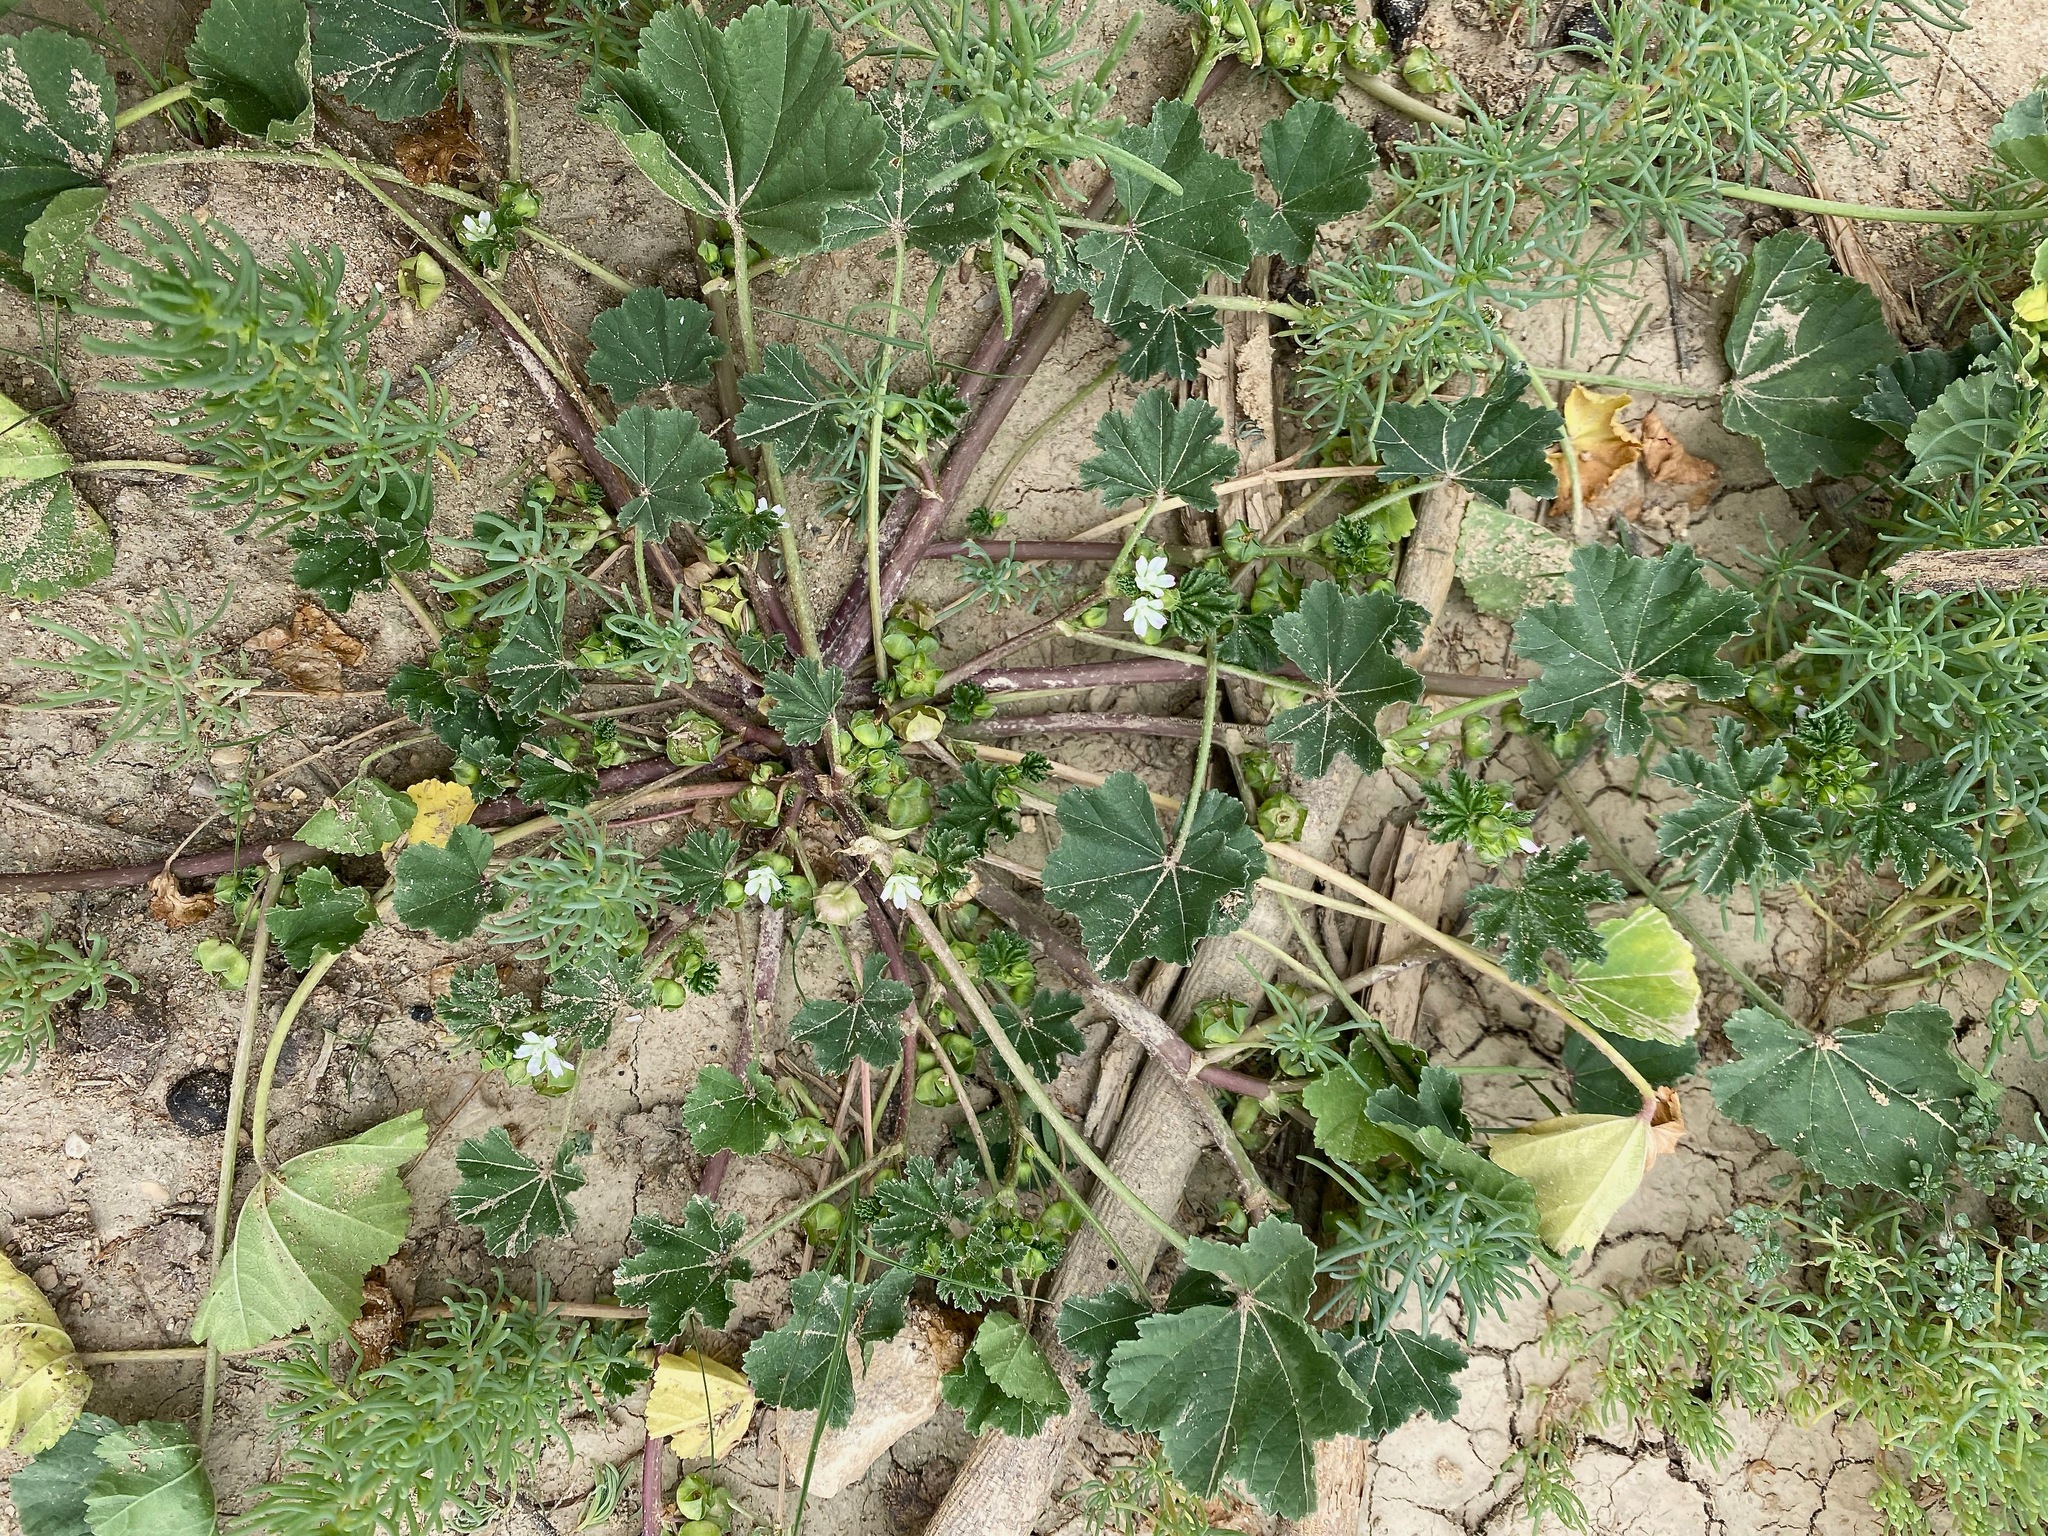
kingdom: Plantae
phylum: Tracheophyta
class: Magnoliopsida
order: Malvales
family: Malvaceae
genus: Malva
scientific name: Malva parviflora
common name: Least mallow
